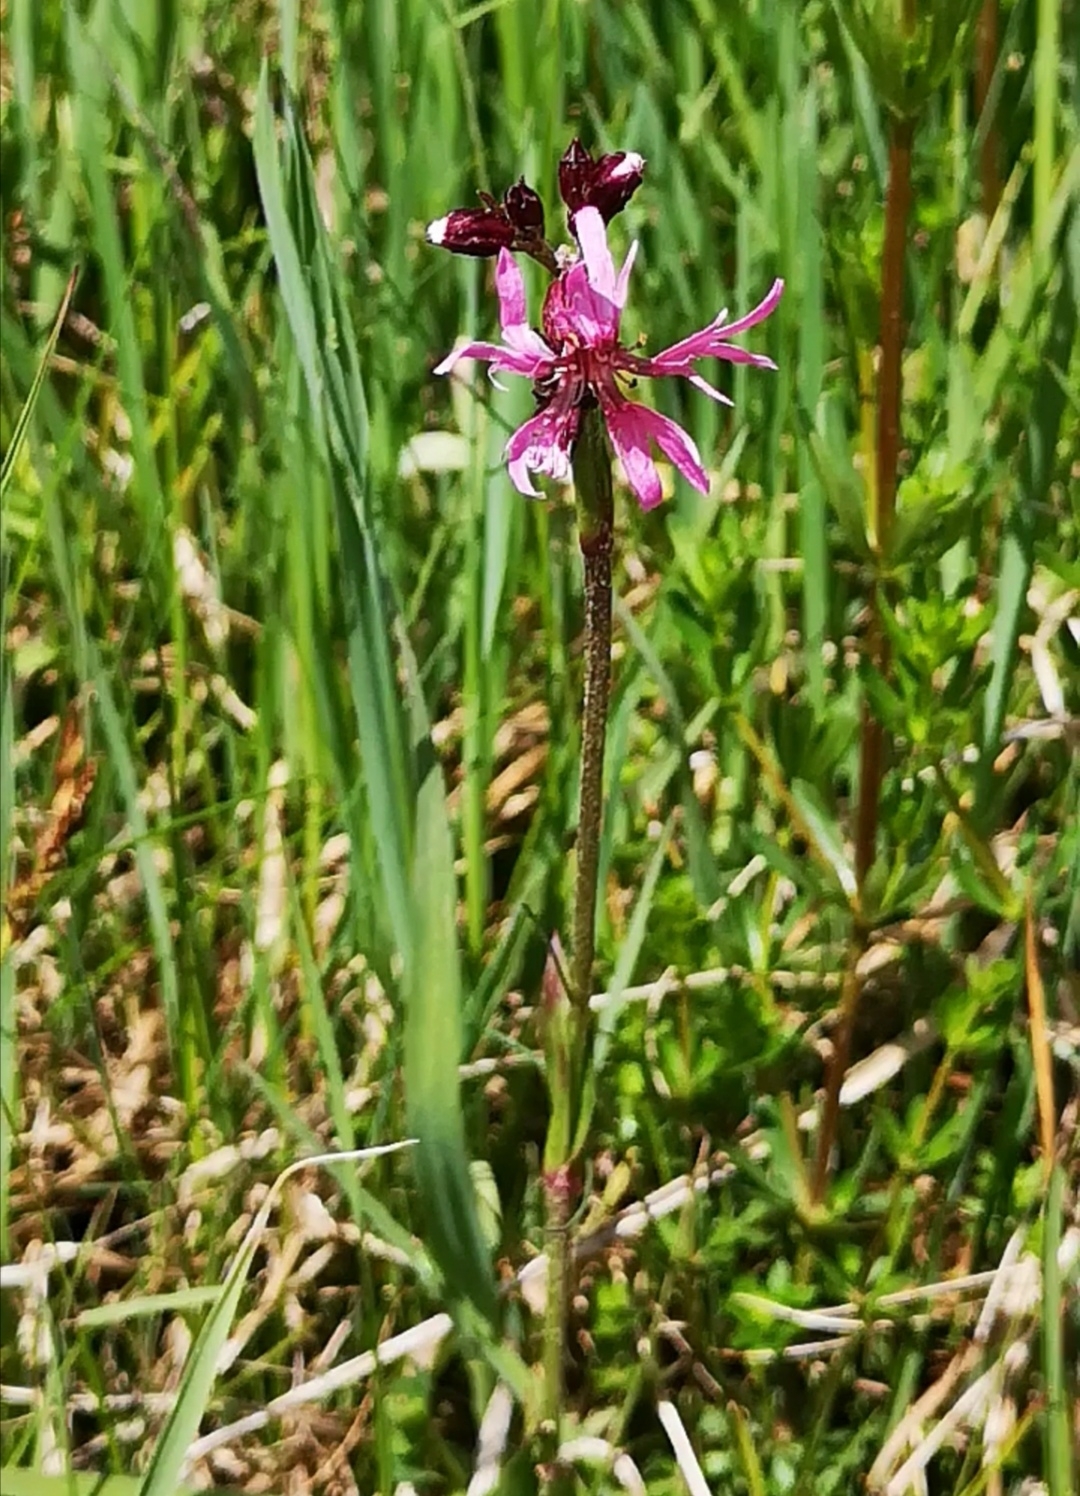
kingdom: Plantae
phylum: Tracheophyta
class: Magnoliopsida
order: Caryophyllales
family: Caryophyllaceae
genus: Silene
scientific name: Silene flos-cuculi
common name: Ragged-robin
